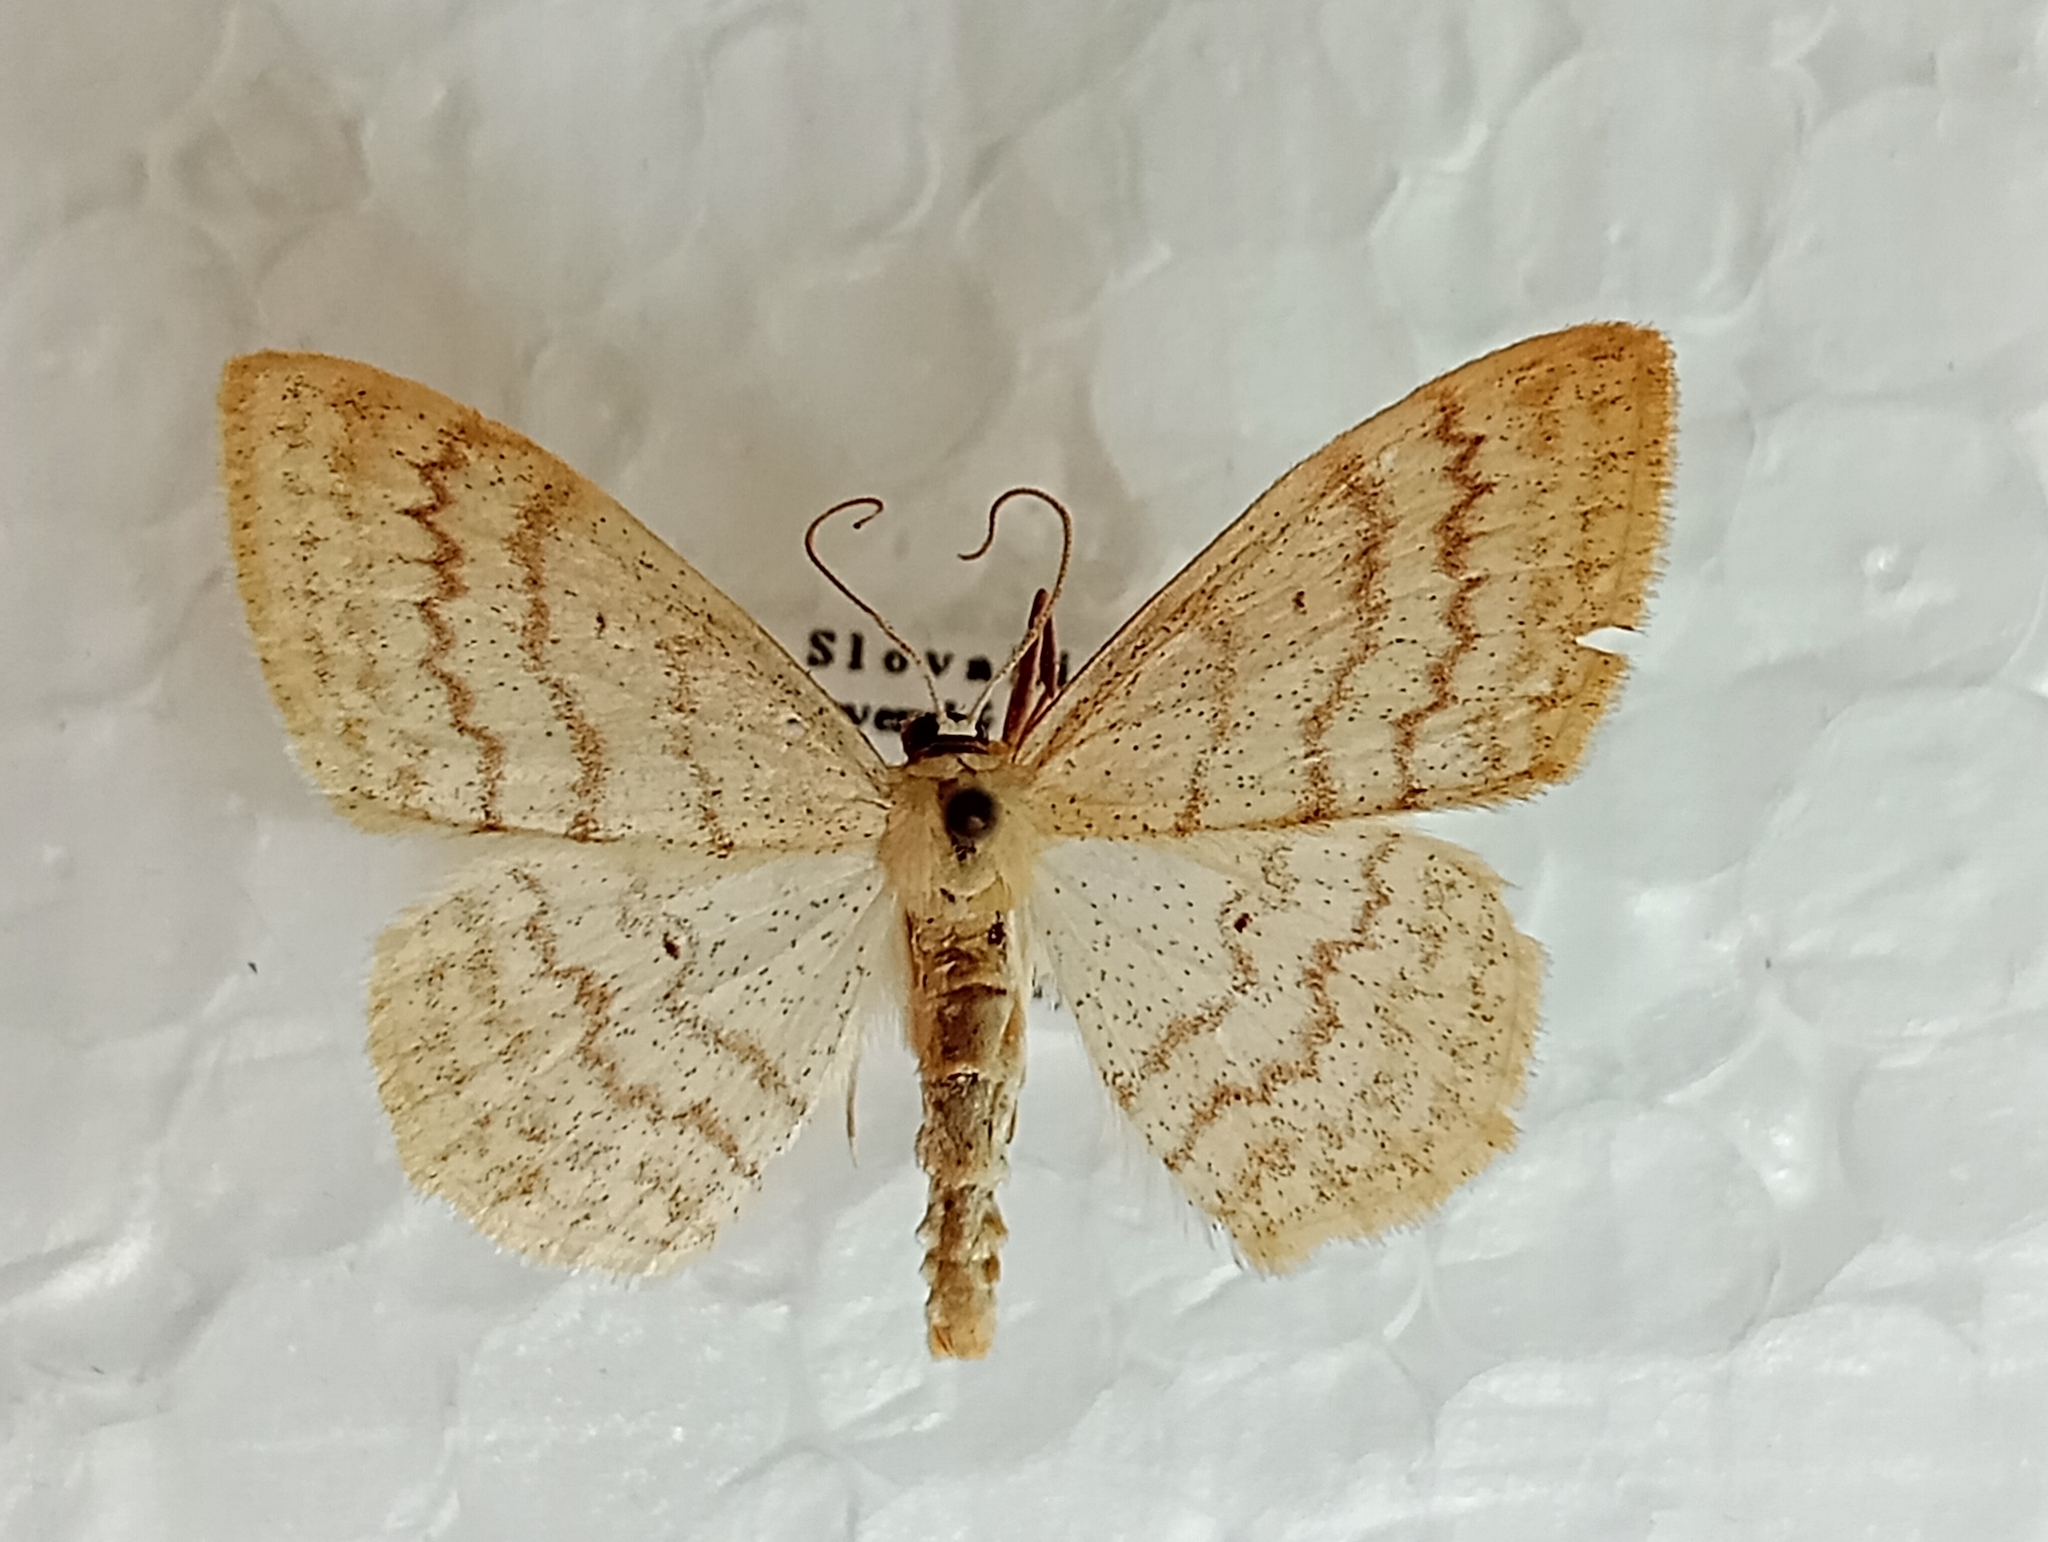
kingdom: Animalia
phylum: Arthropoda
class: Insecta
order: Lepidoptera
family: Geometridae
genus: Scopula
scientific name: Scopula floslactata
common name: Cream wave
